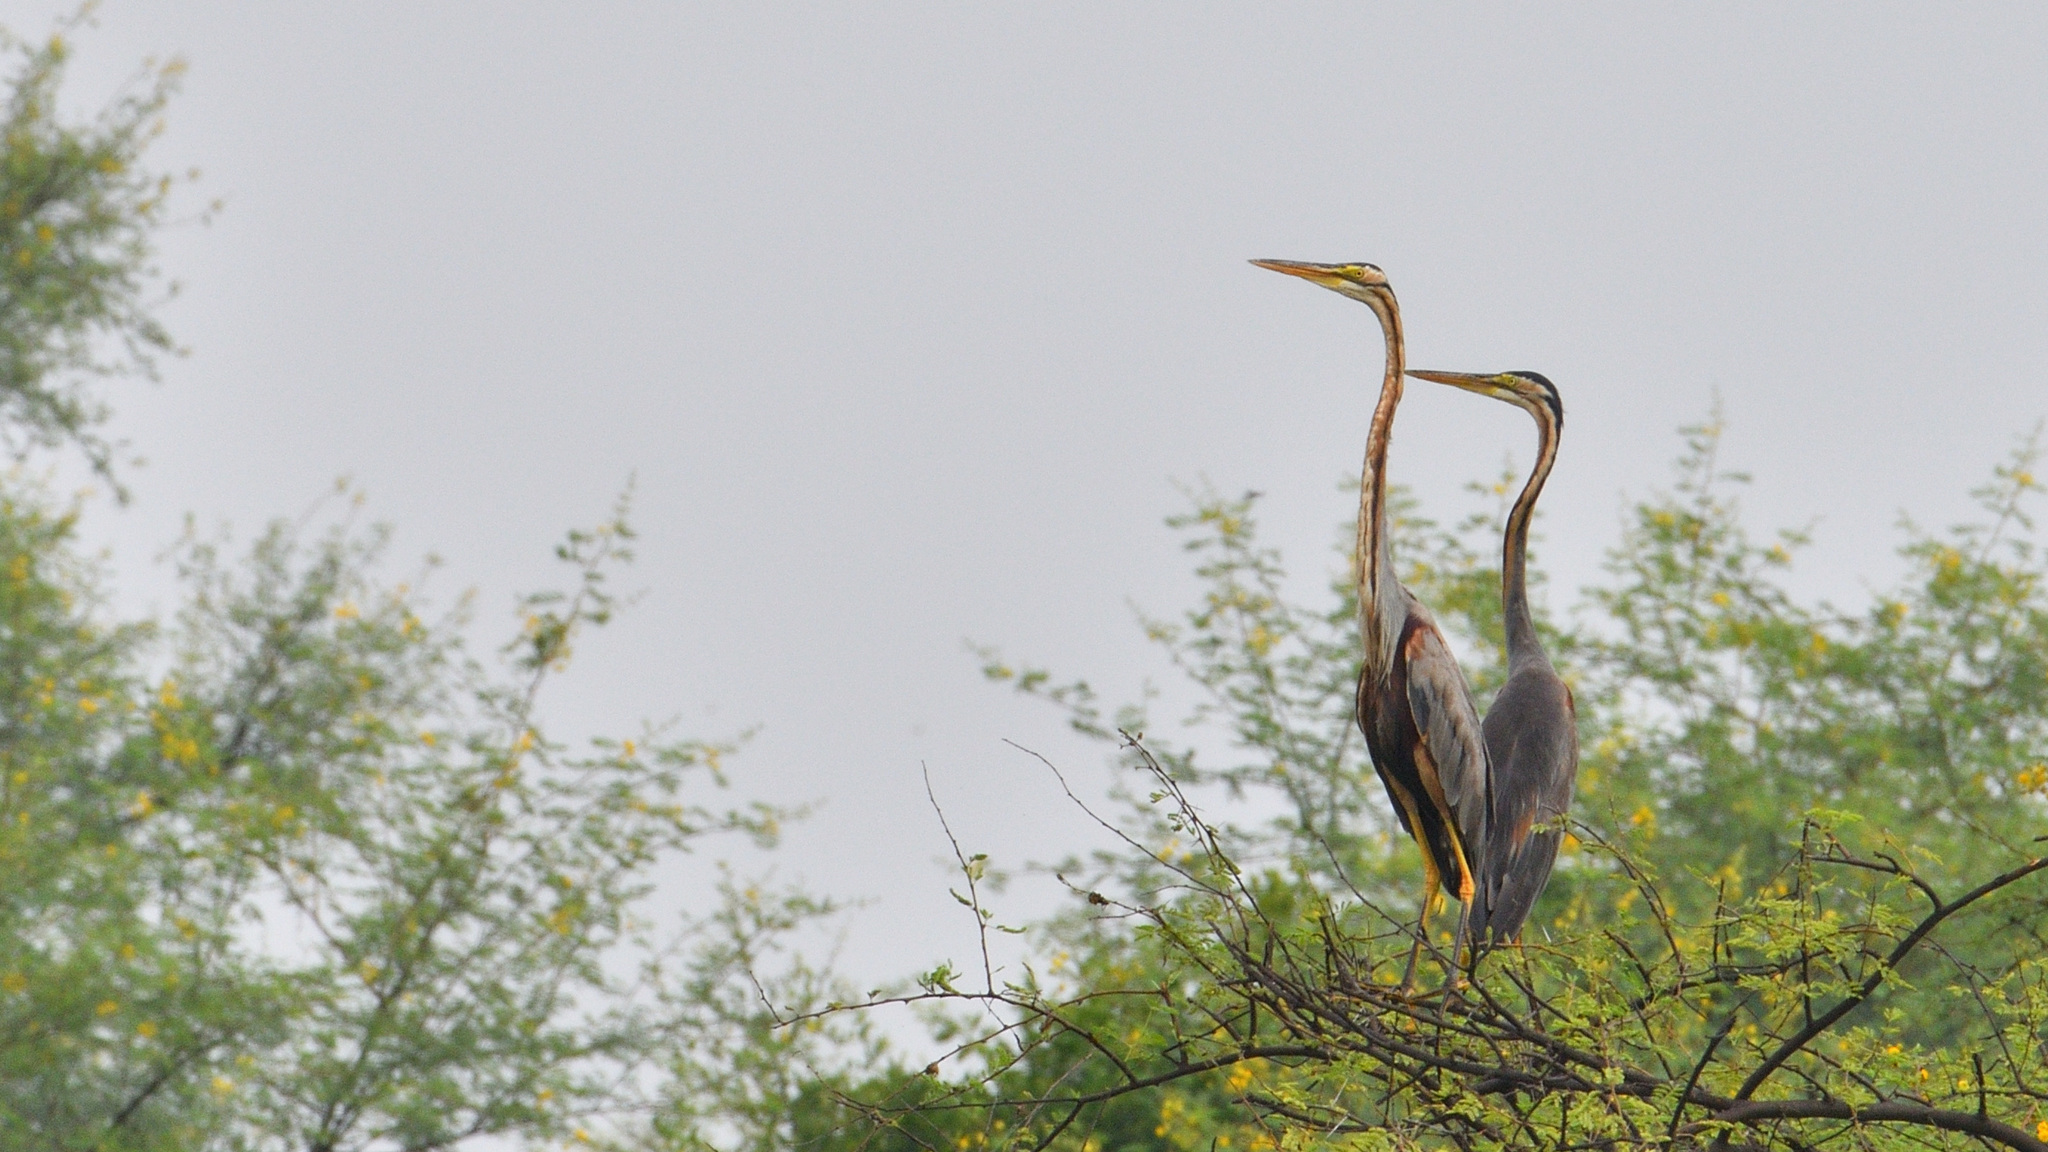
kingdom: Animalia
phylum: Chordata
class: Aves
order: Pelecaniformes
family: Ardeidae
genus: Ardea
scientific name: Ardea purpurea
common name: Purple heron
